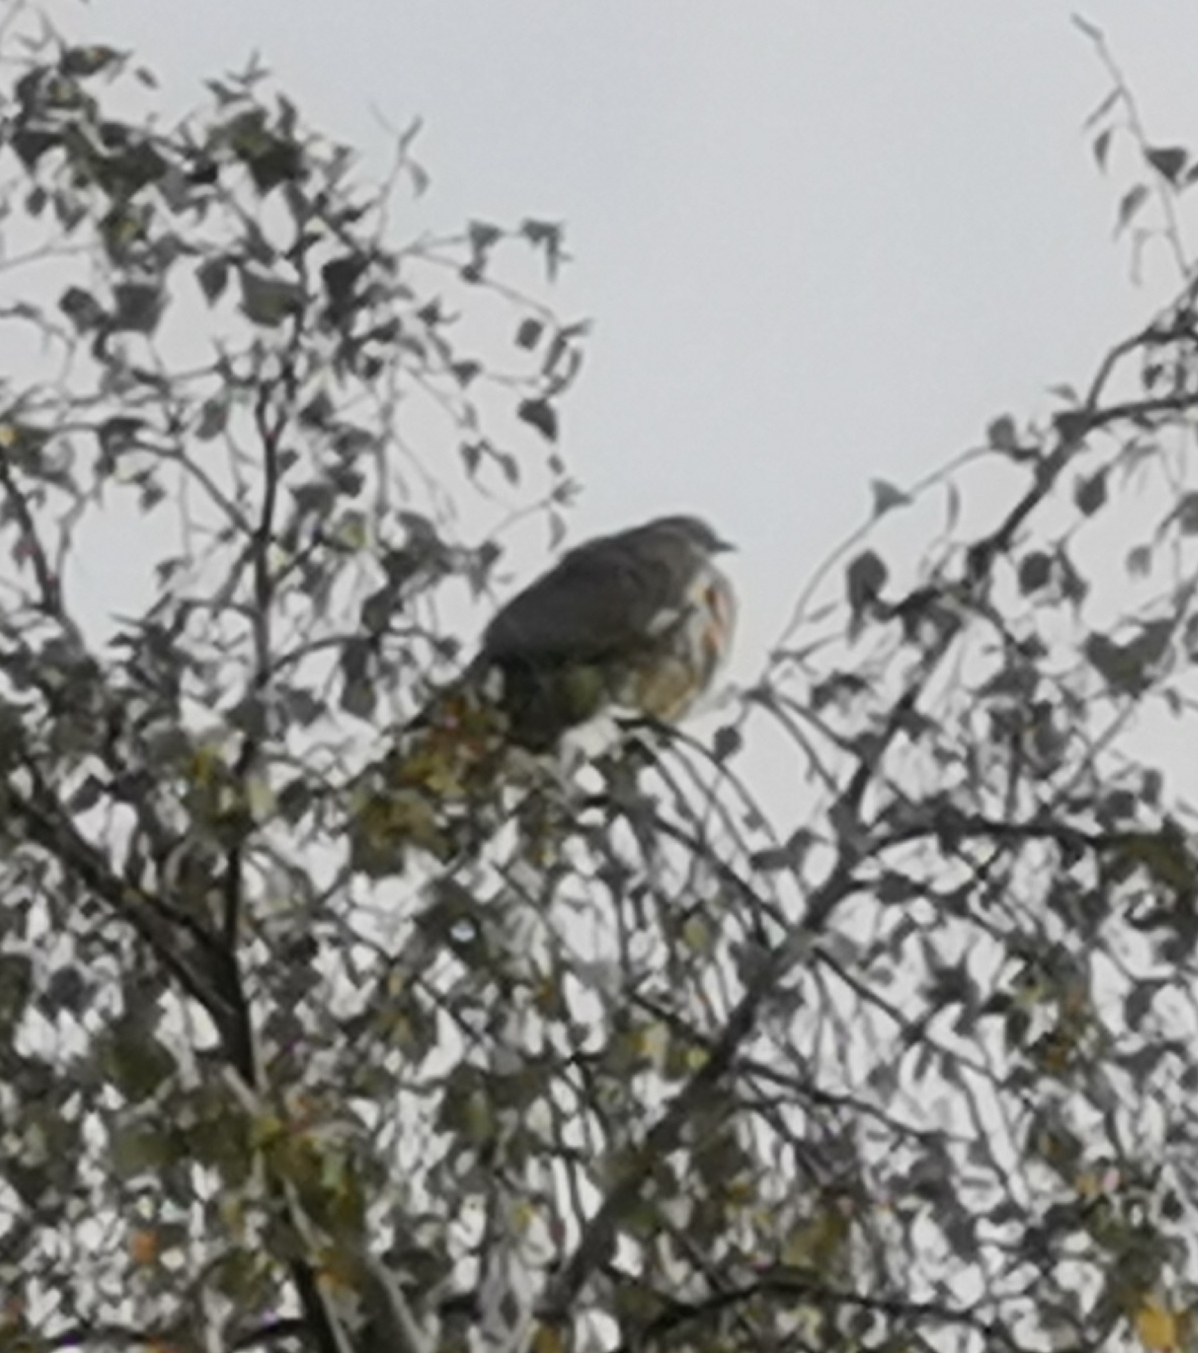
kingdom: Animalia
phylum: Chordata
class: Aves
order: Columbiformes
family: Columbidae
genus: Columba
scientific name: Columba palumbus
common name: Common wood pigeon
